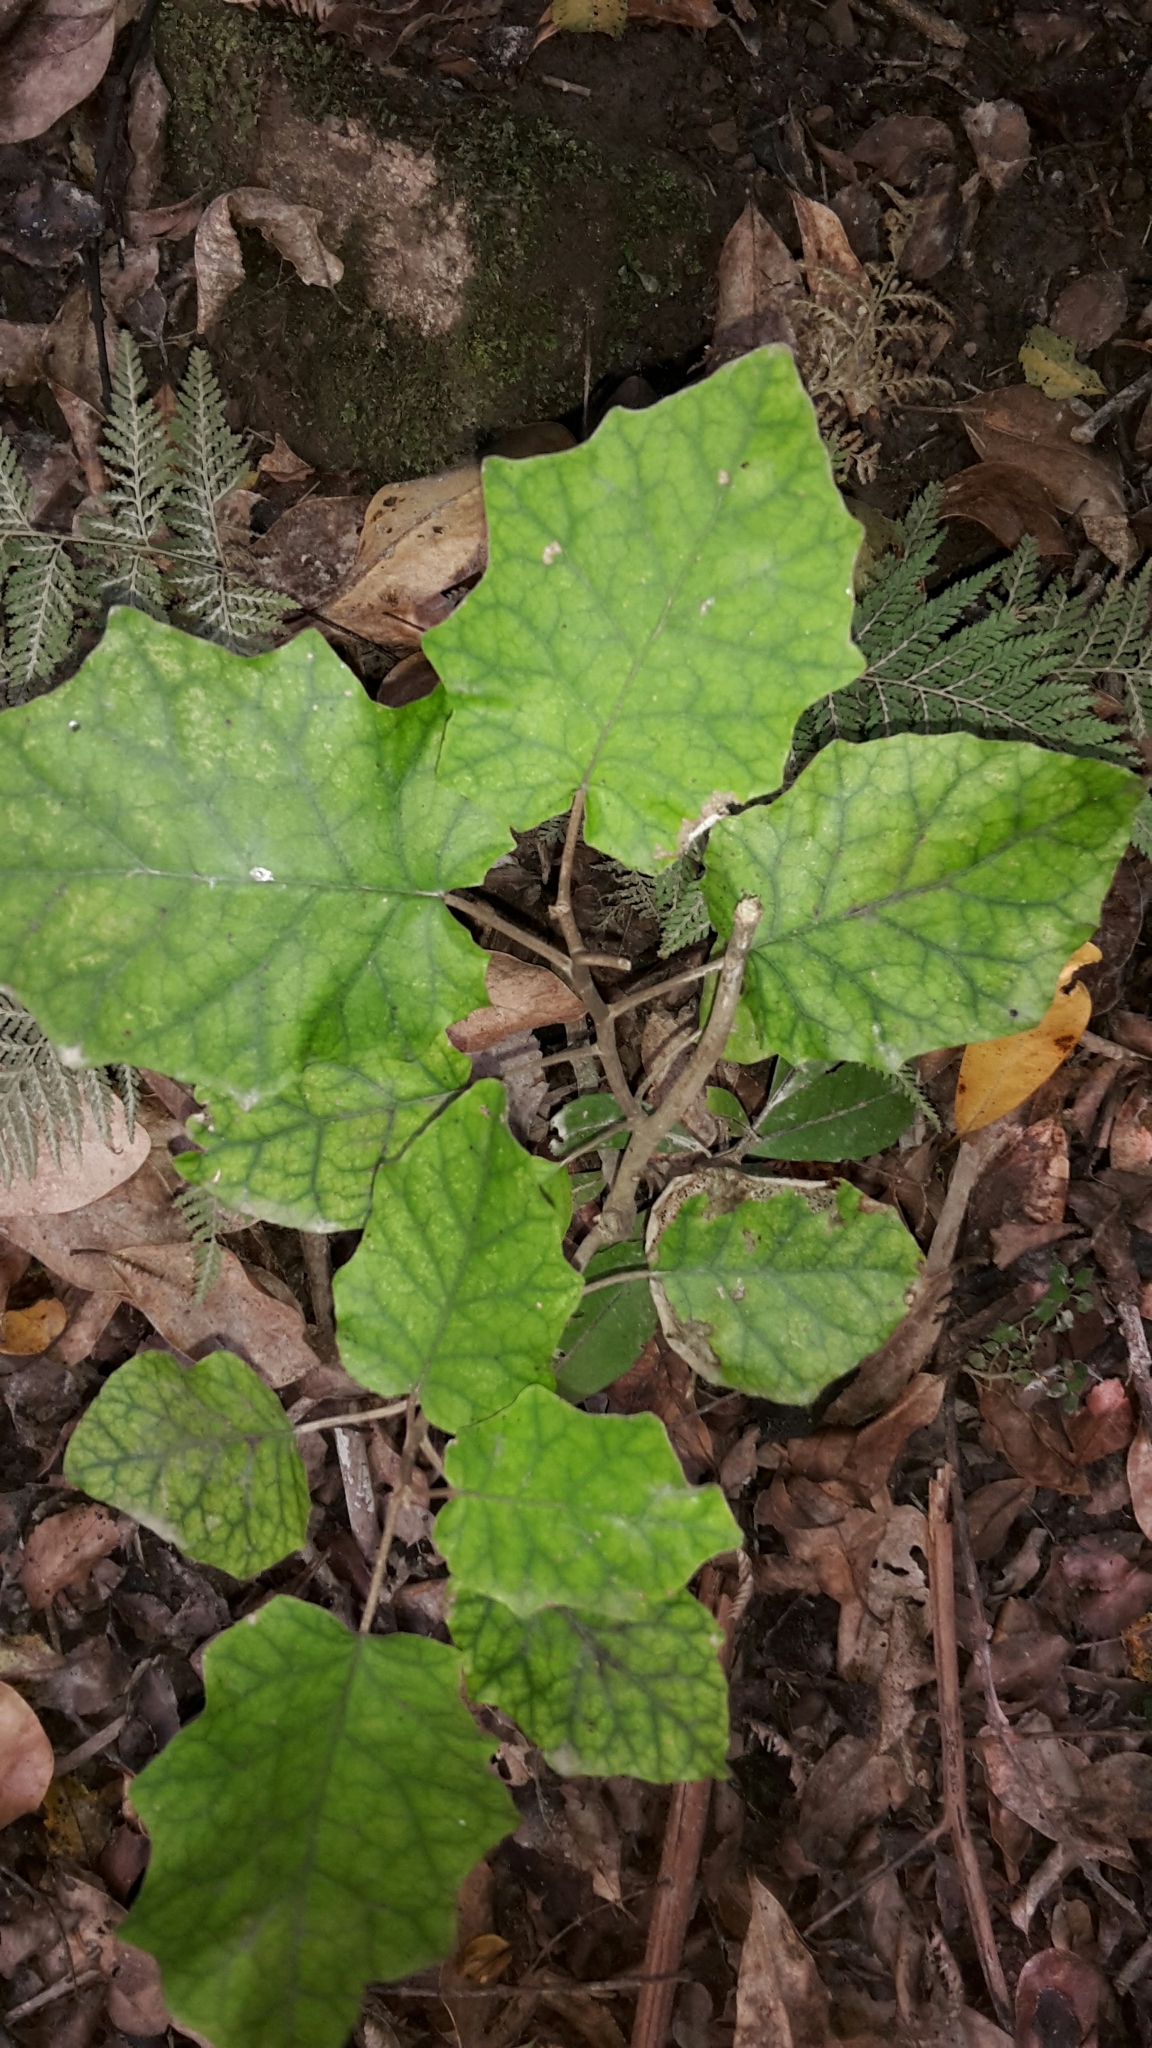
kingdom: Plantae
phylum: Tracheophyta
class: Magnoliopsida
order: Asterales
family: Asteraceae
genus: Brachyglottis
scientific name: Brachyglottis repanda
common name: Hedge ragwort
